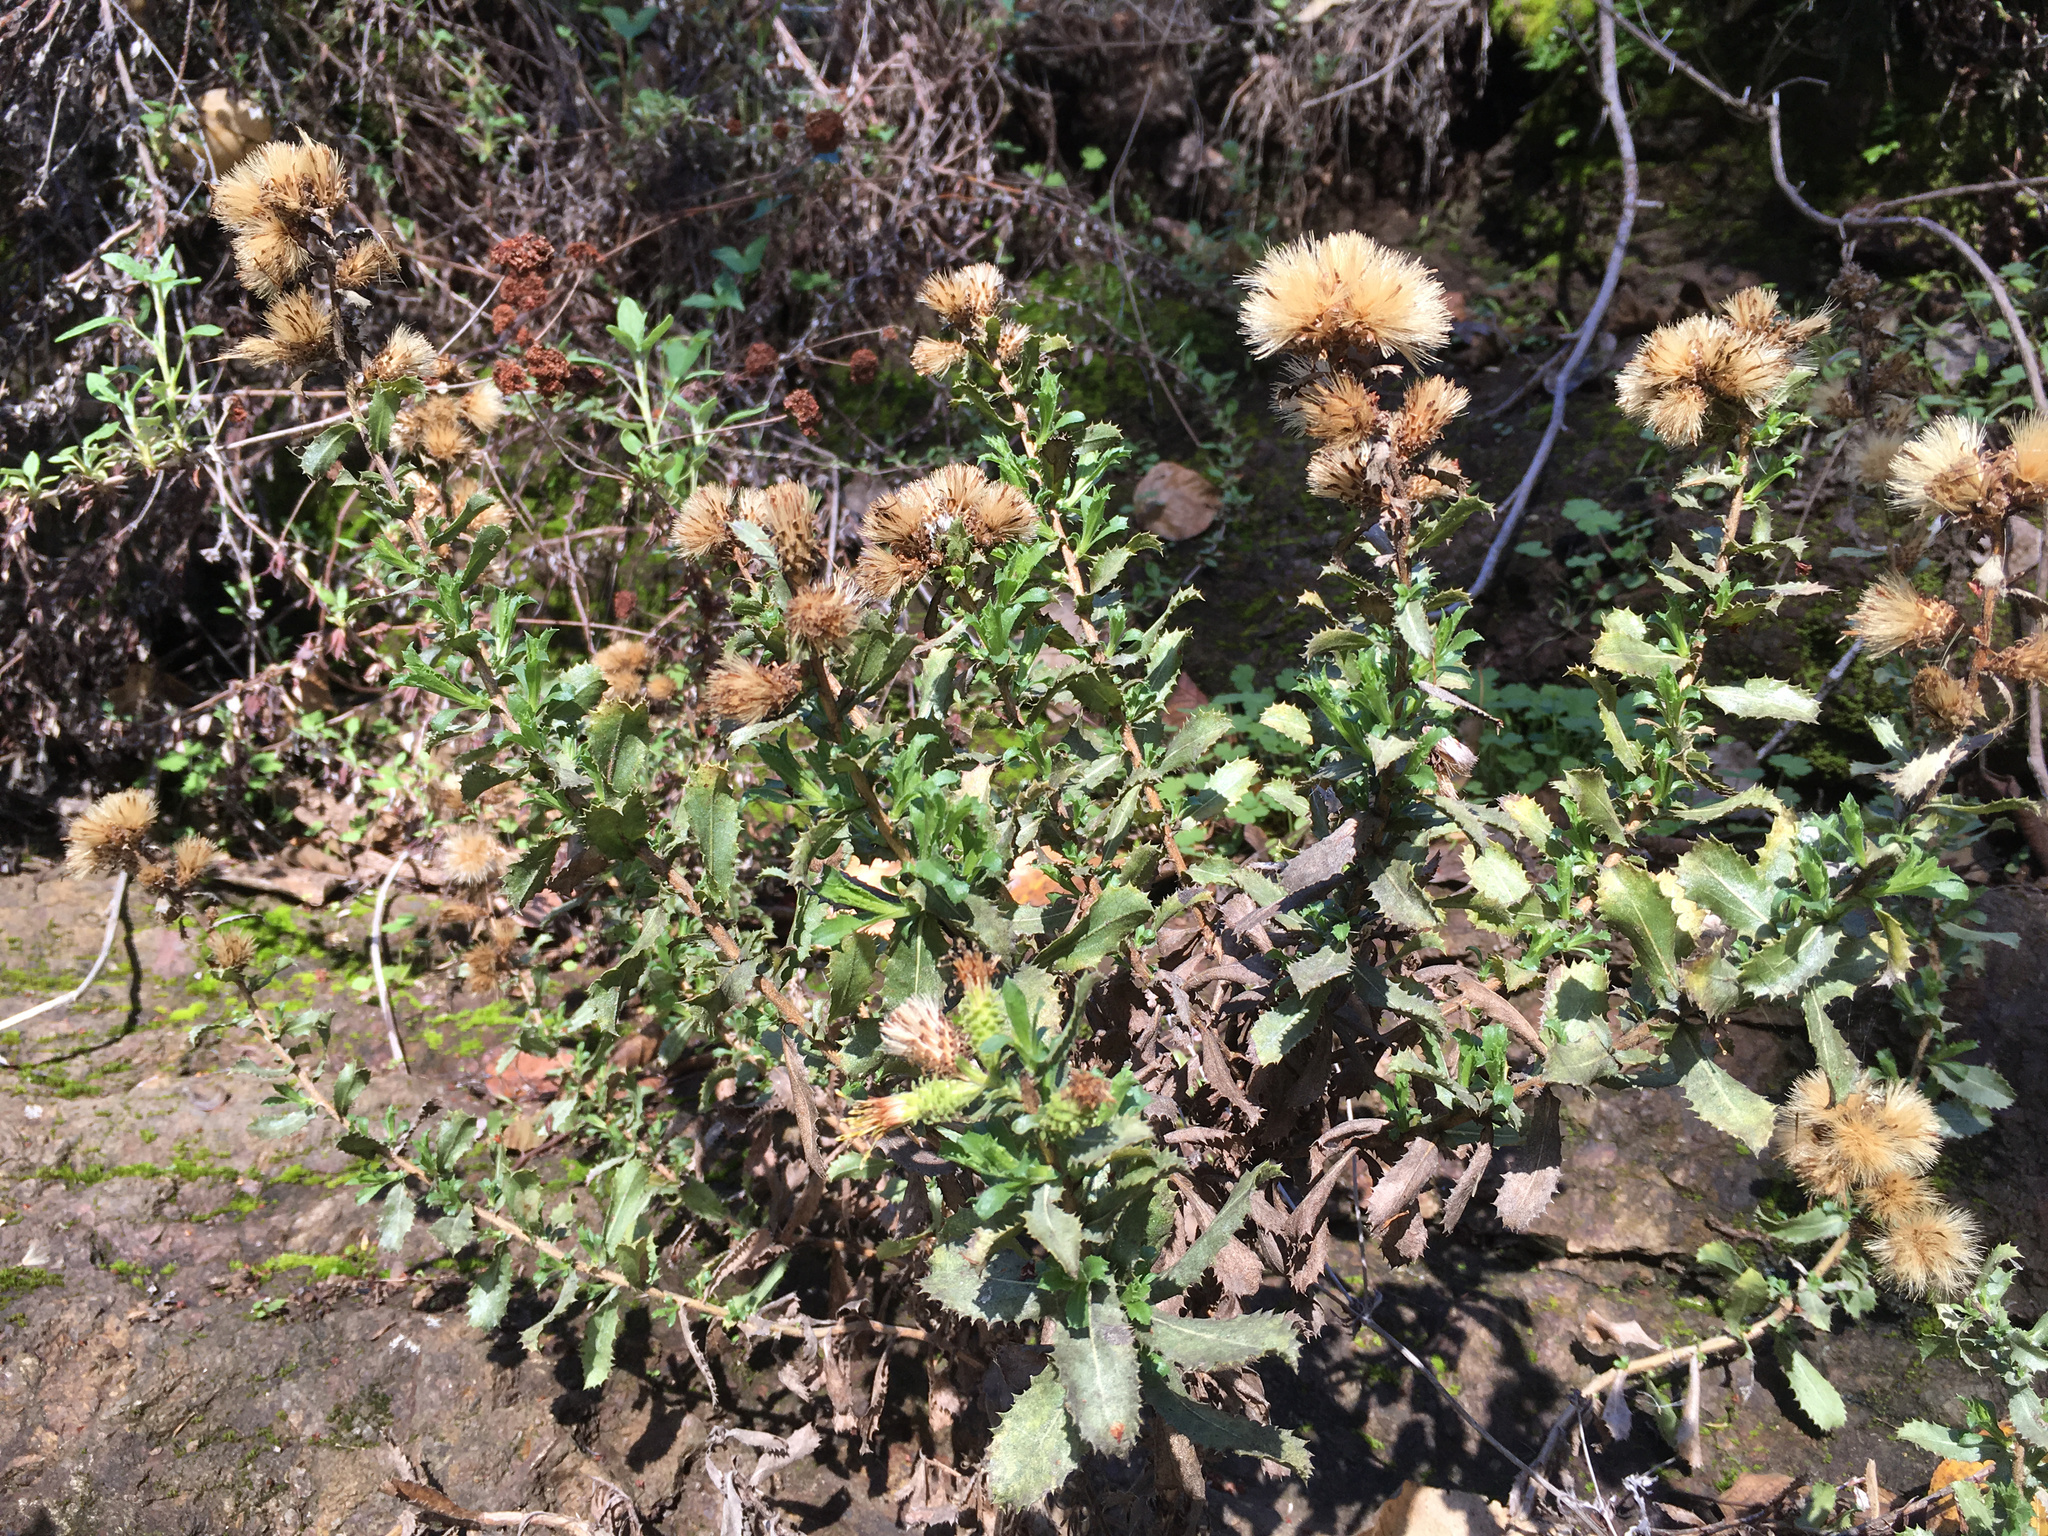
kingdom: Plantae
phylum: Tracheophyta
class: Magnoliopsida
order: Asterales
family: Asteraceae
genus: Hazardia
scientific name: Hazardia squarrosa
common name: Saw-tooth goldenbush
